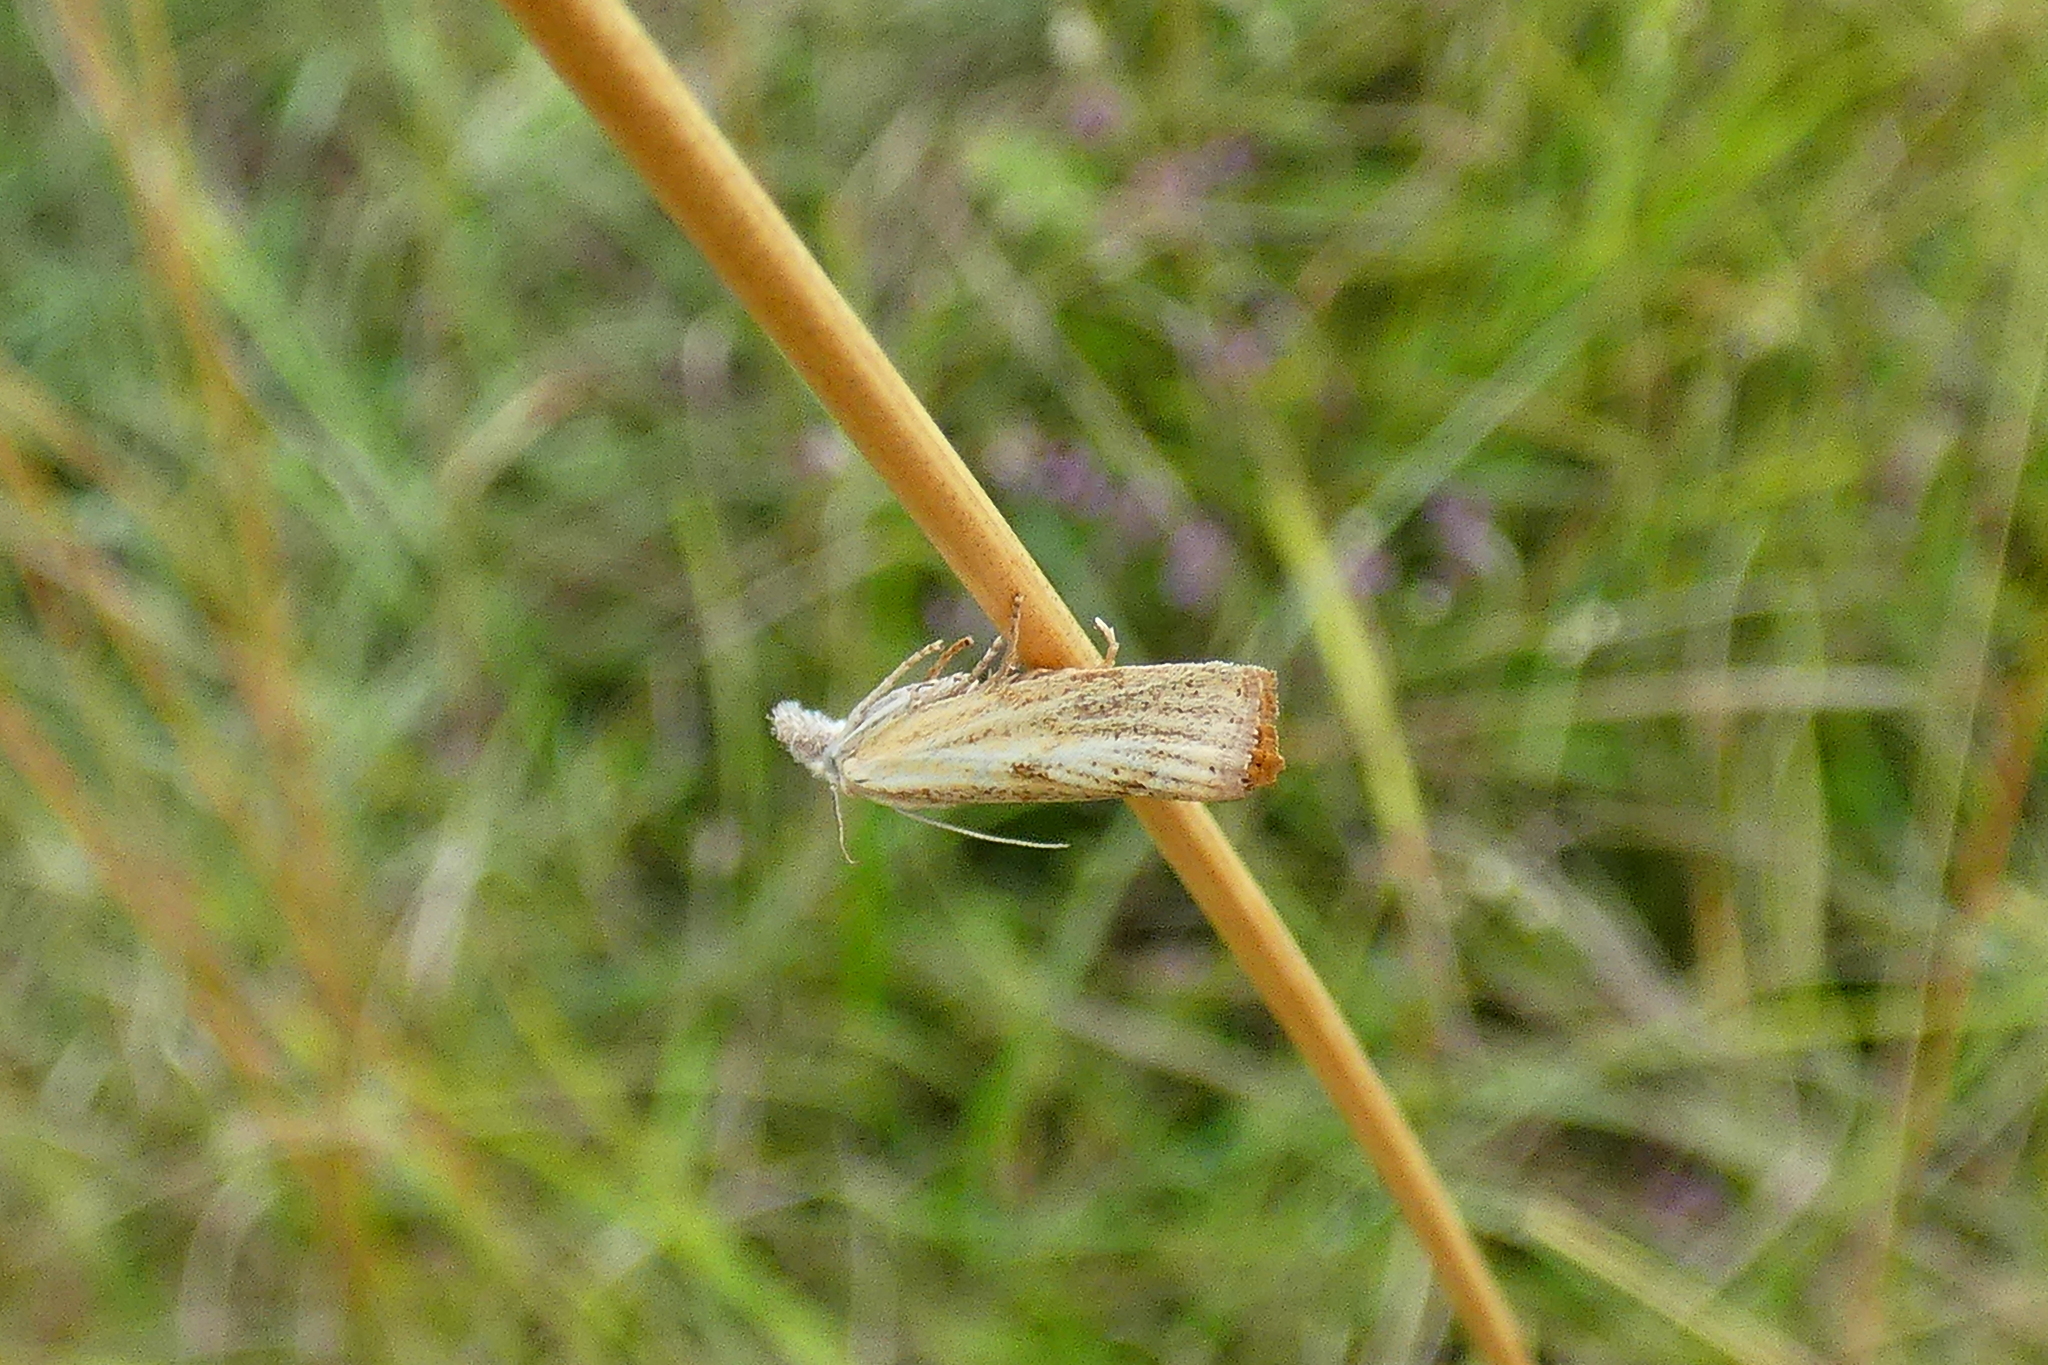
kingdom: Animalia
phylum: Arthropoda
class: Insecta
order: Lepidoptera
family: Crambidae
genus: Agriphila
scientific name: Agriphila inquinatella
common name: Barred grass-veneer
